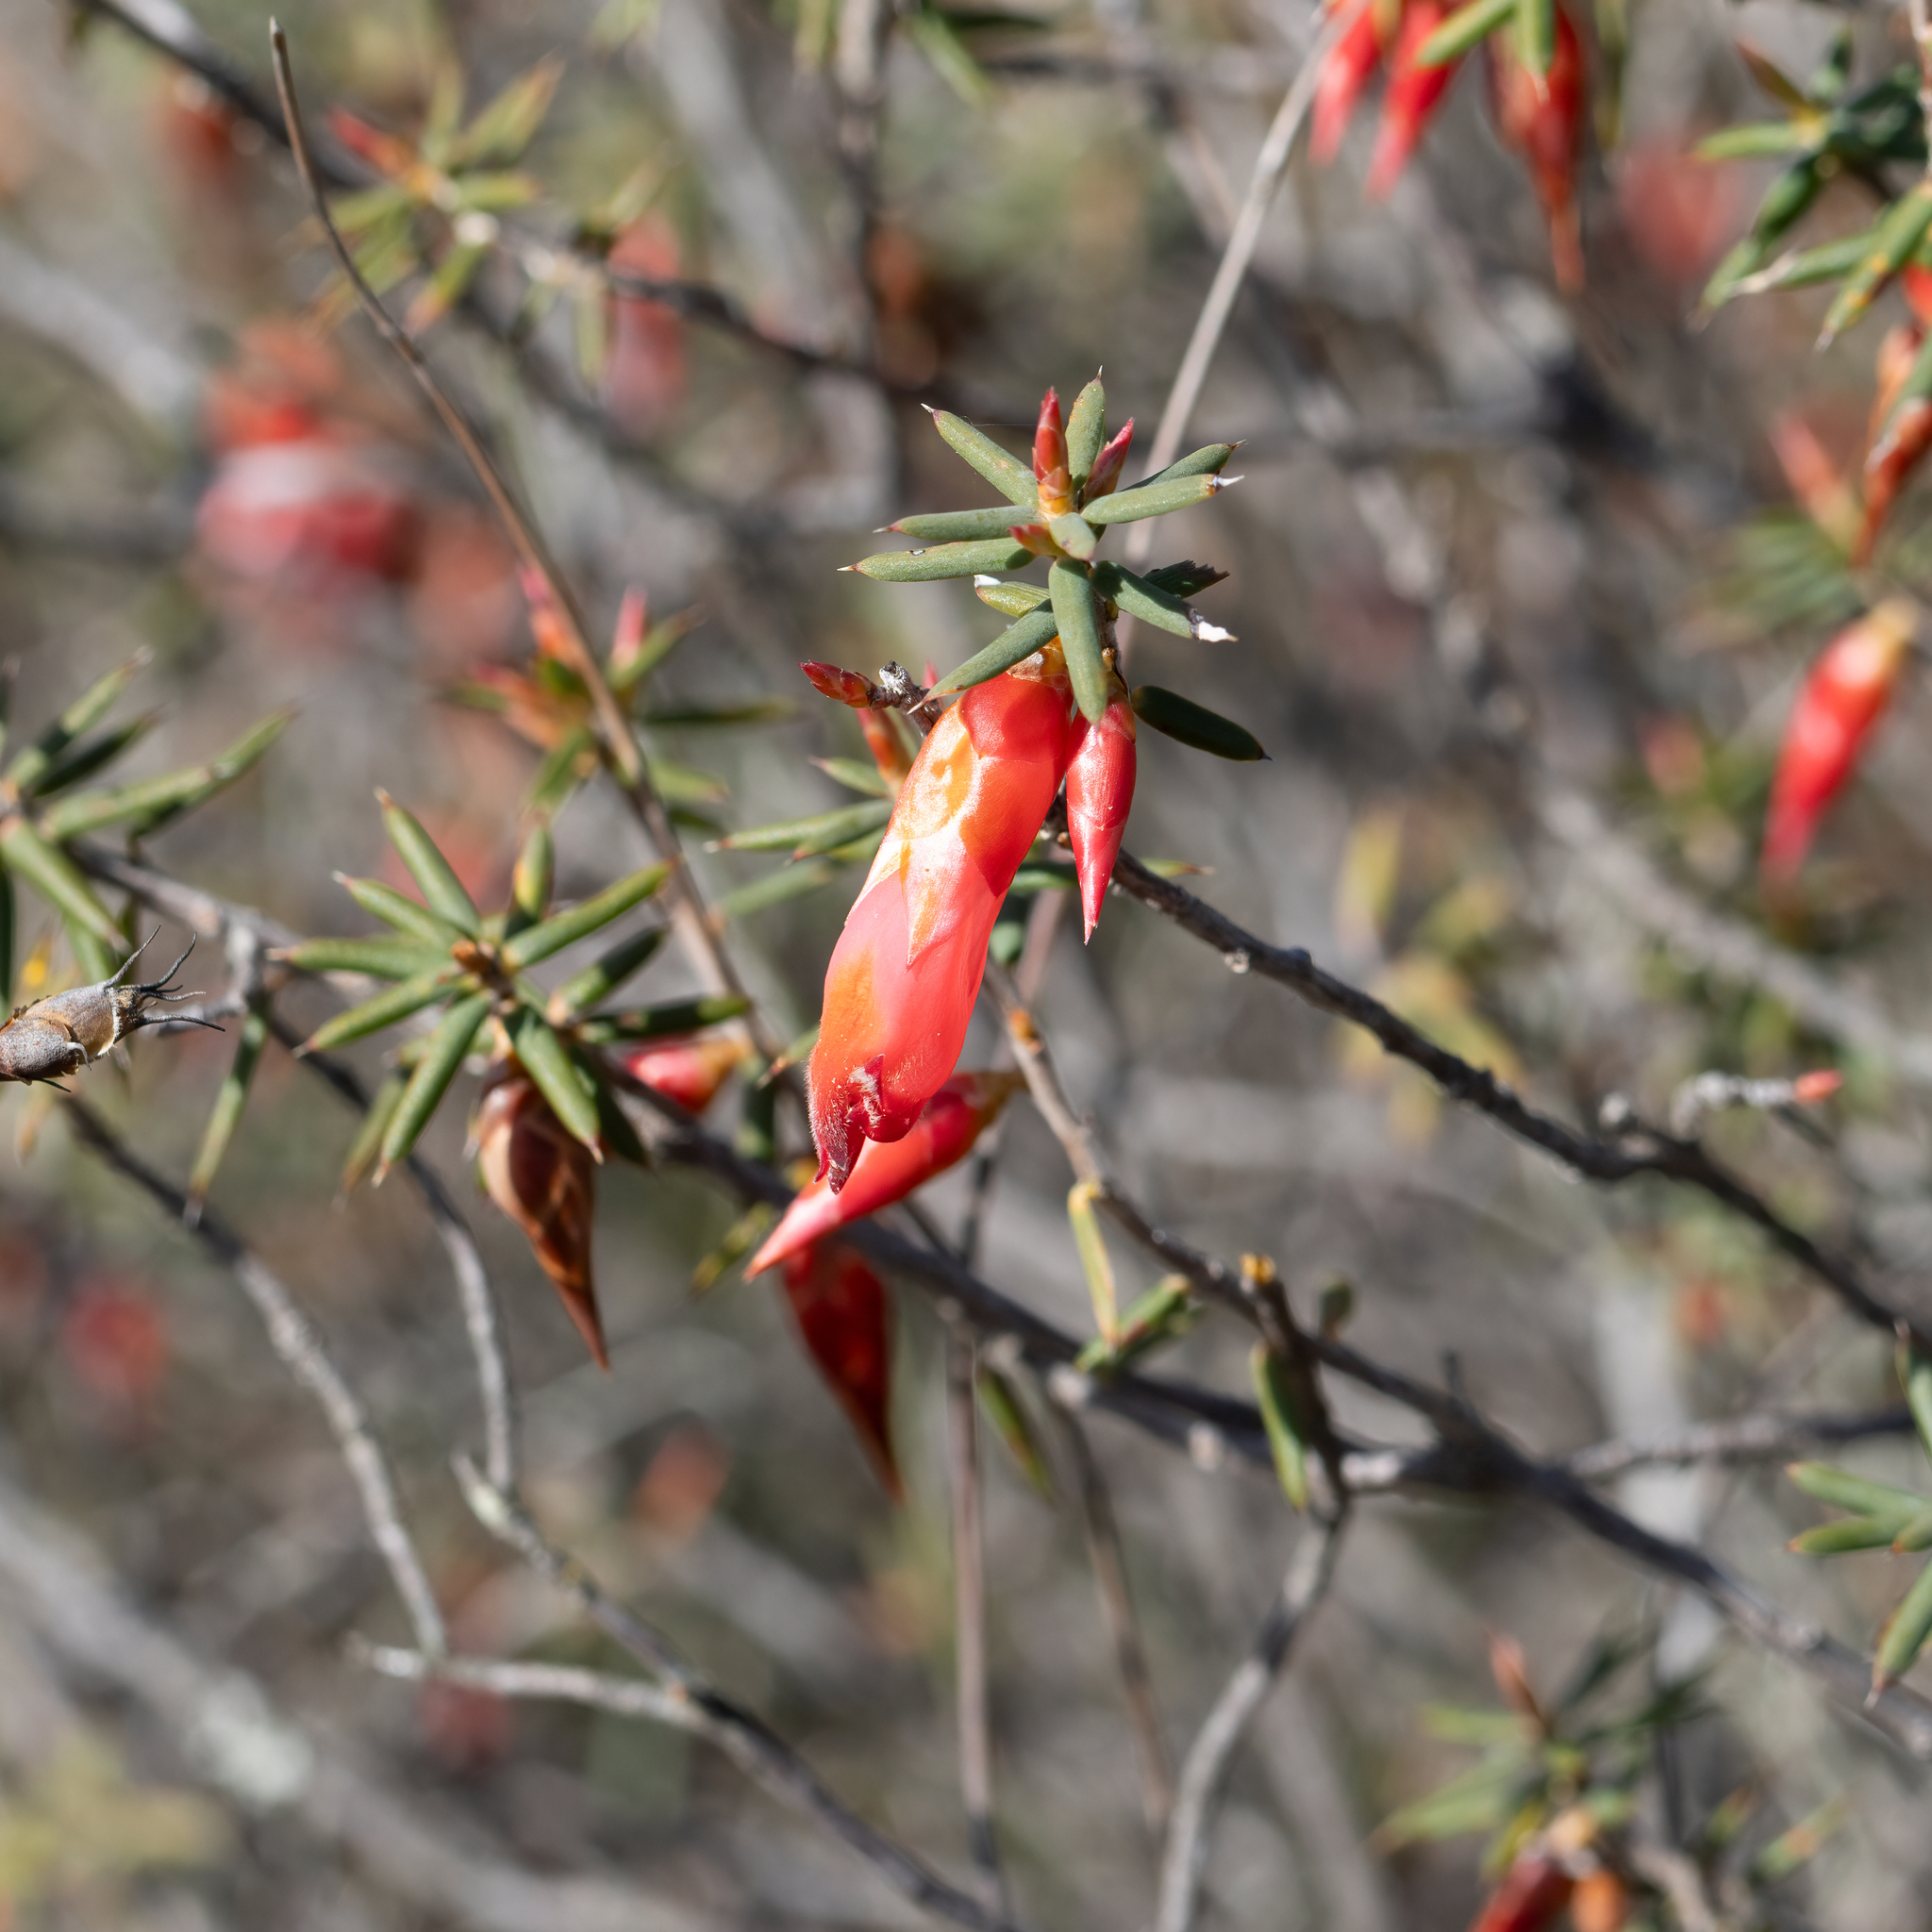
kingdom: Plantae
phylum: Tracheophyta
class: Magnoliopsida
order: Ericales
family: Ericaceae
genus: Stenanthera
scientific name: Stenanthera conostephioides
